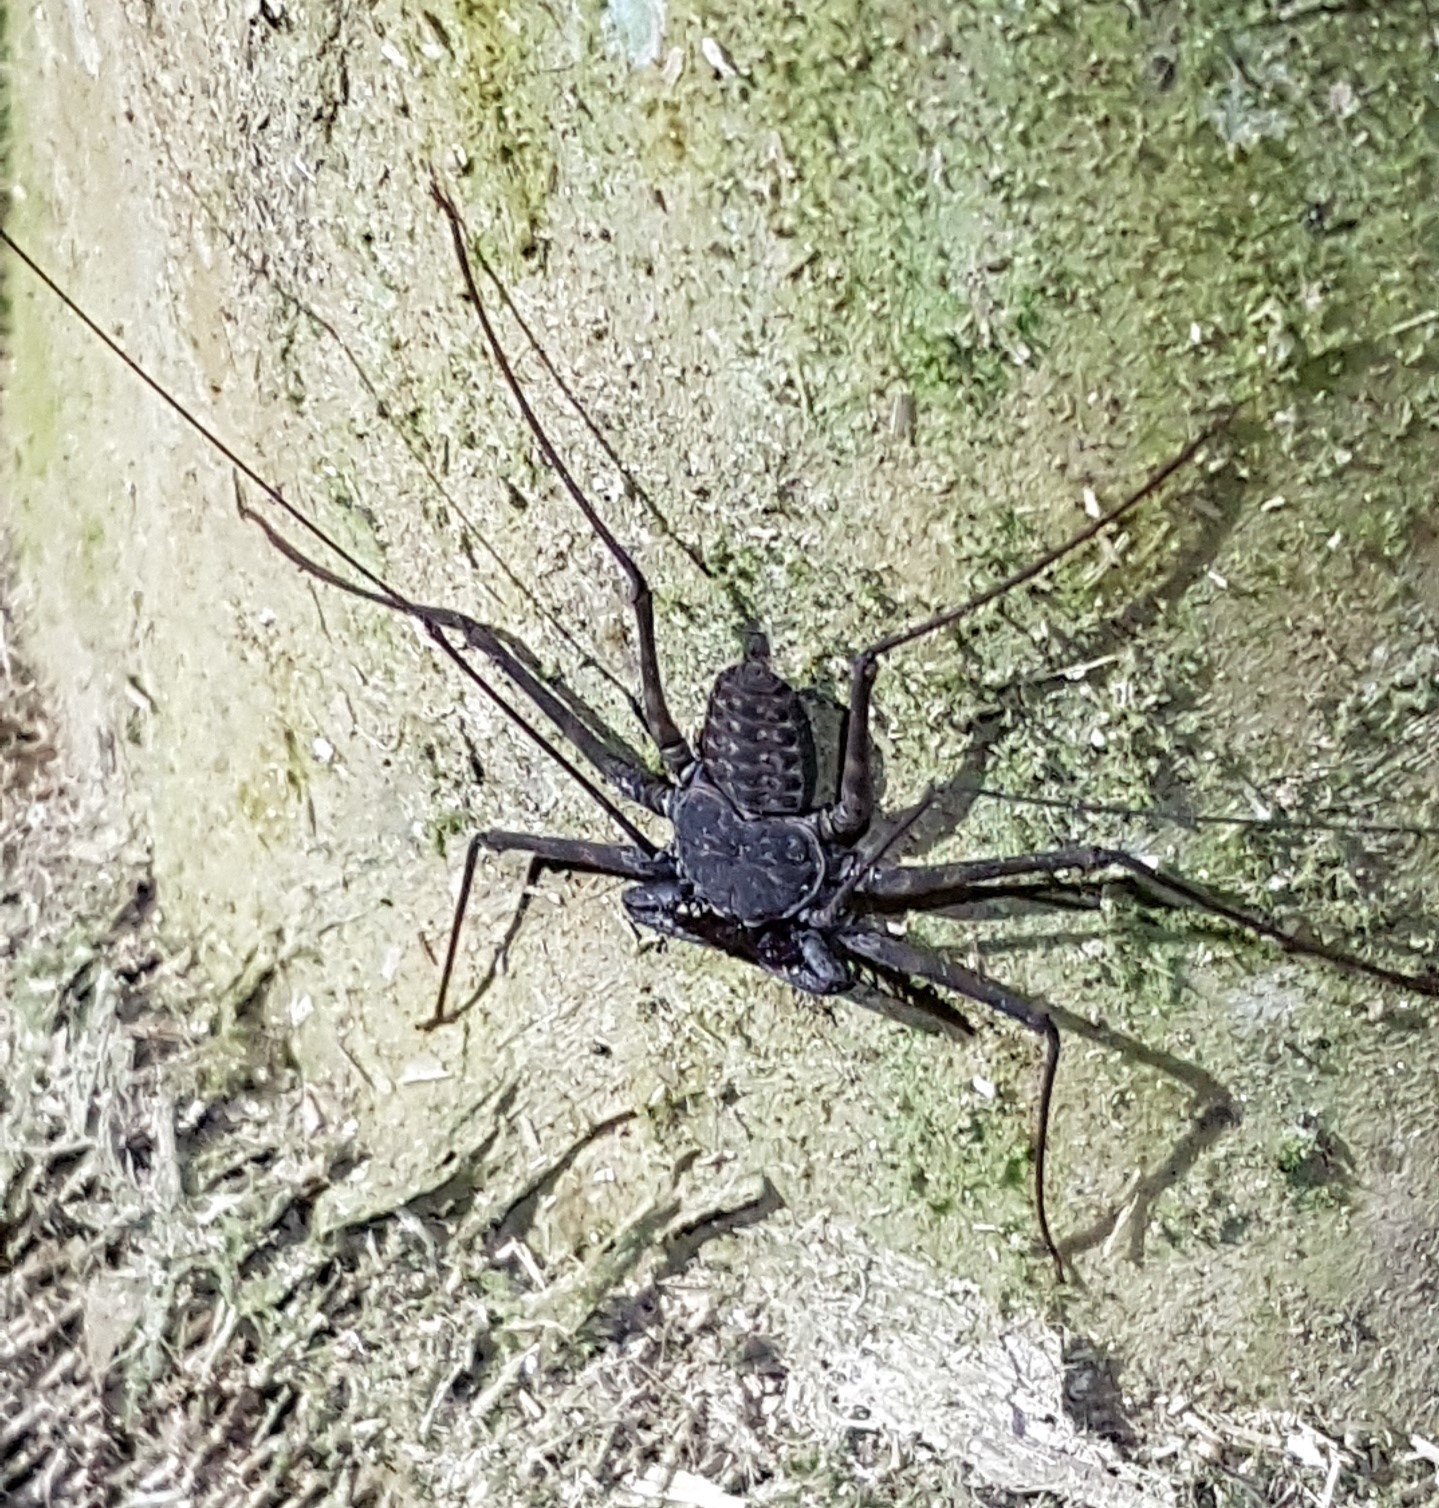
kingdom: Animalia
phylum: Arthropoda
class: Arachnida
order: Amblypygi
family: Phrynidae
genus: Paraphrynus
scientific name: Paraphrynus laevifrons
